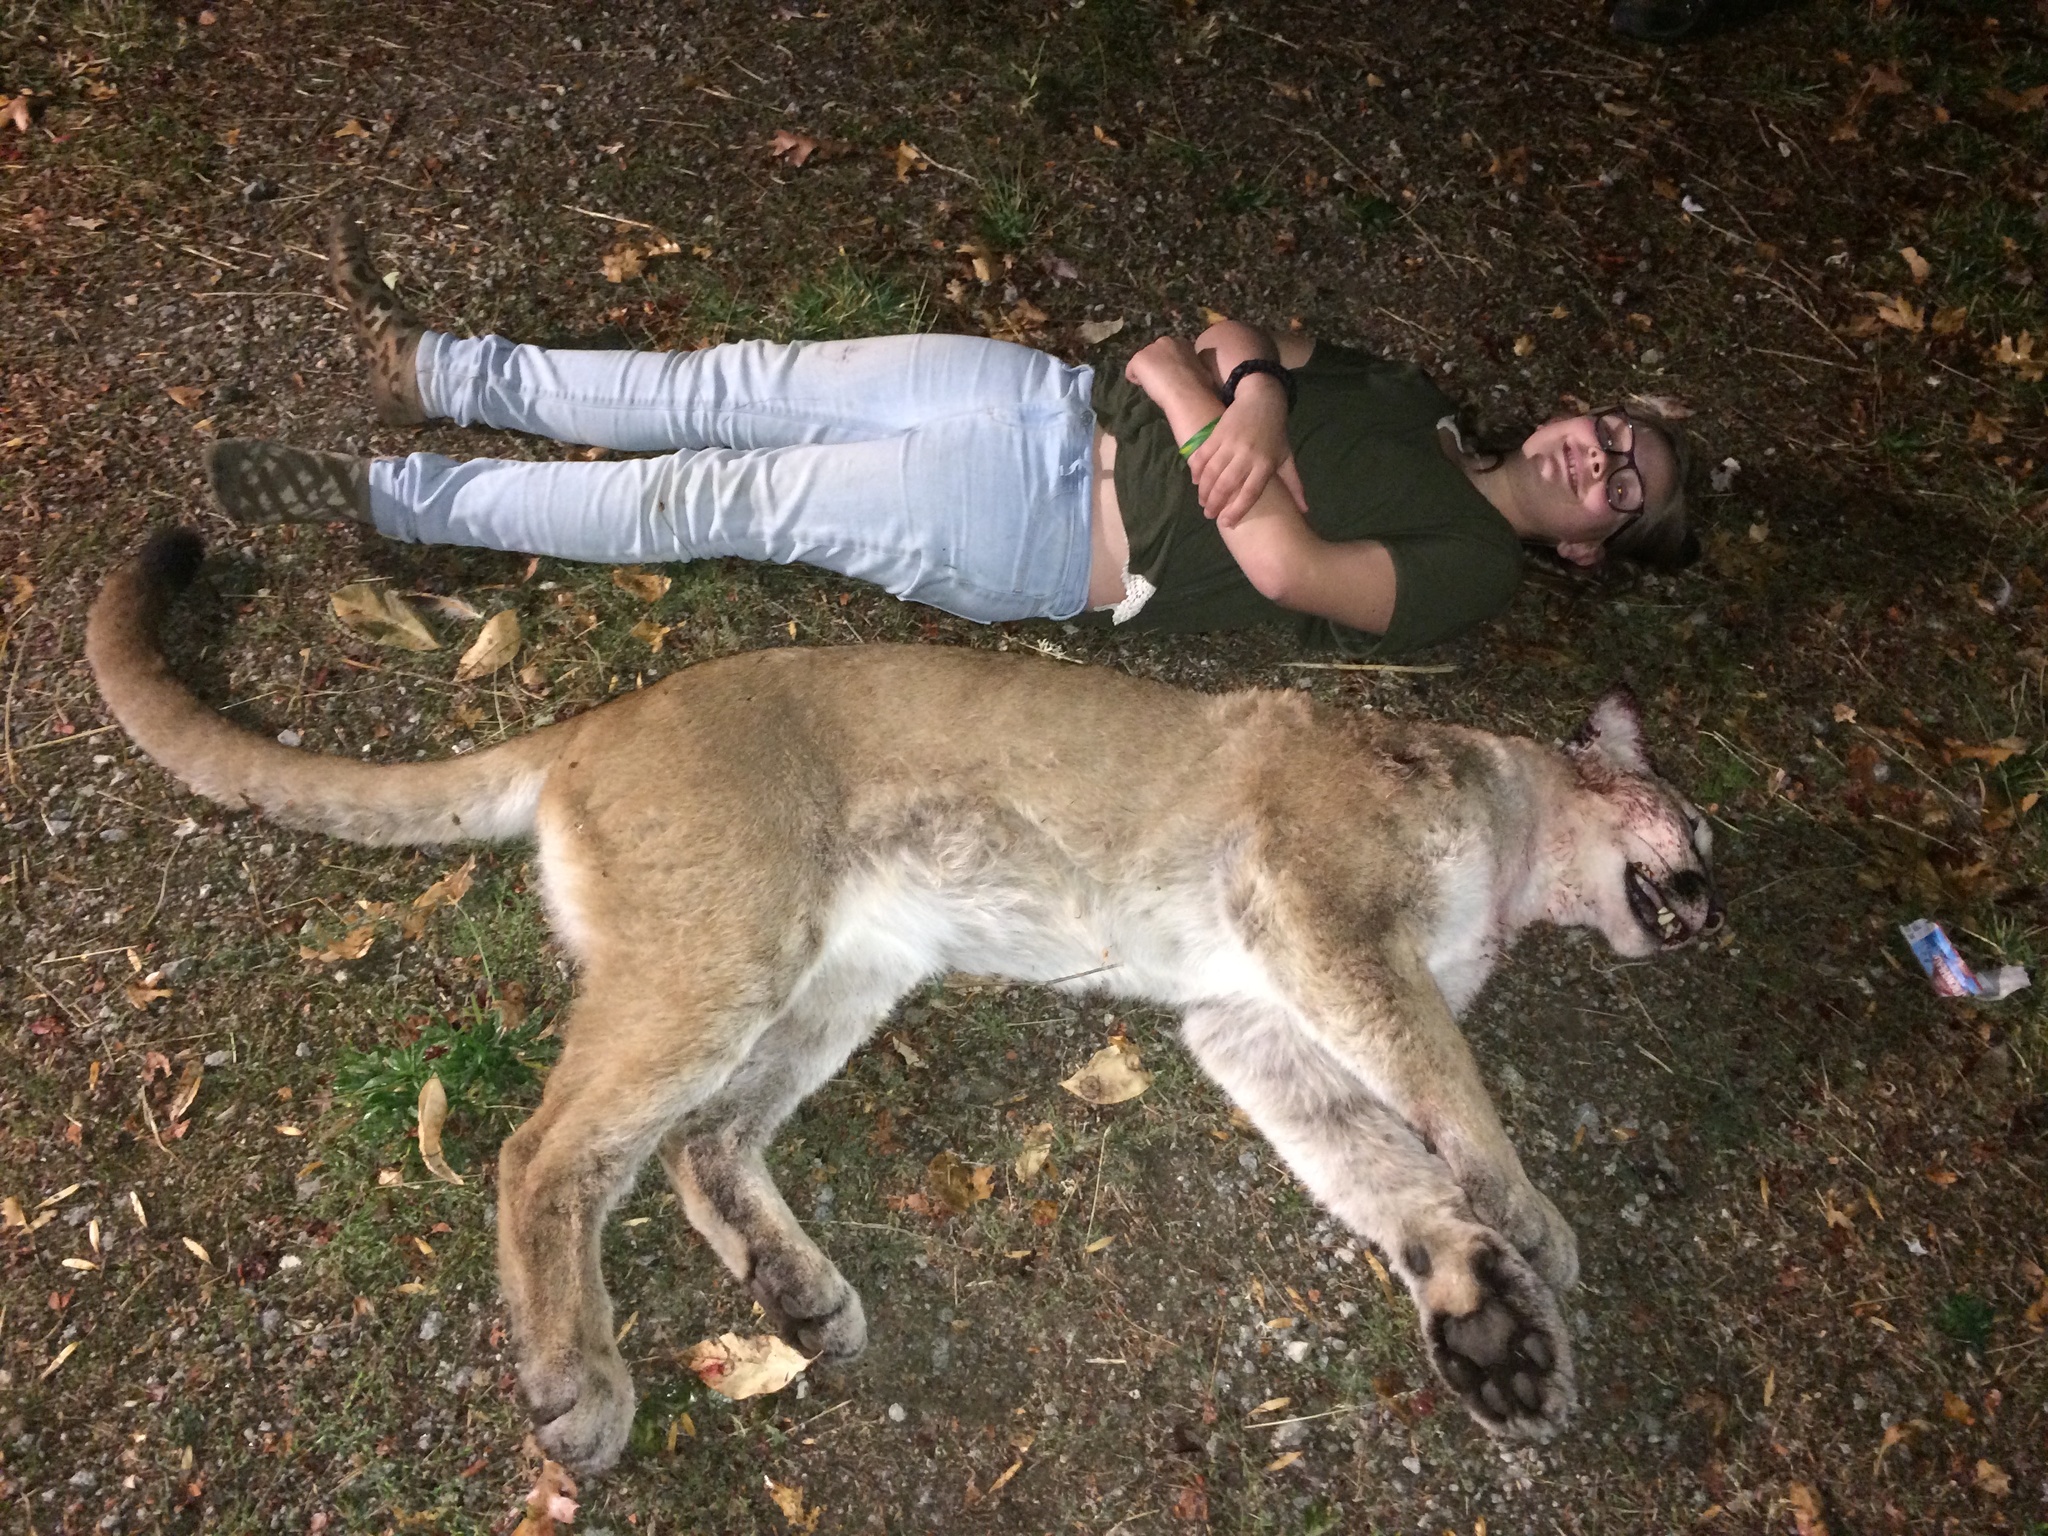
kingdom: Animalia
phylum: Chordata
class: Mammalia
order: Carnivora
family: Felidae
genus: Puma
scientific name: Puma concolor
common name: Puma
